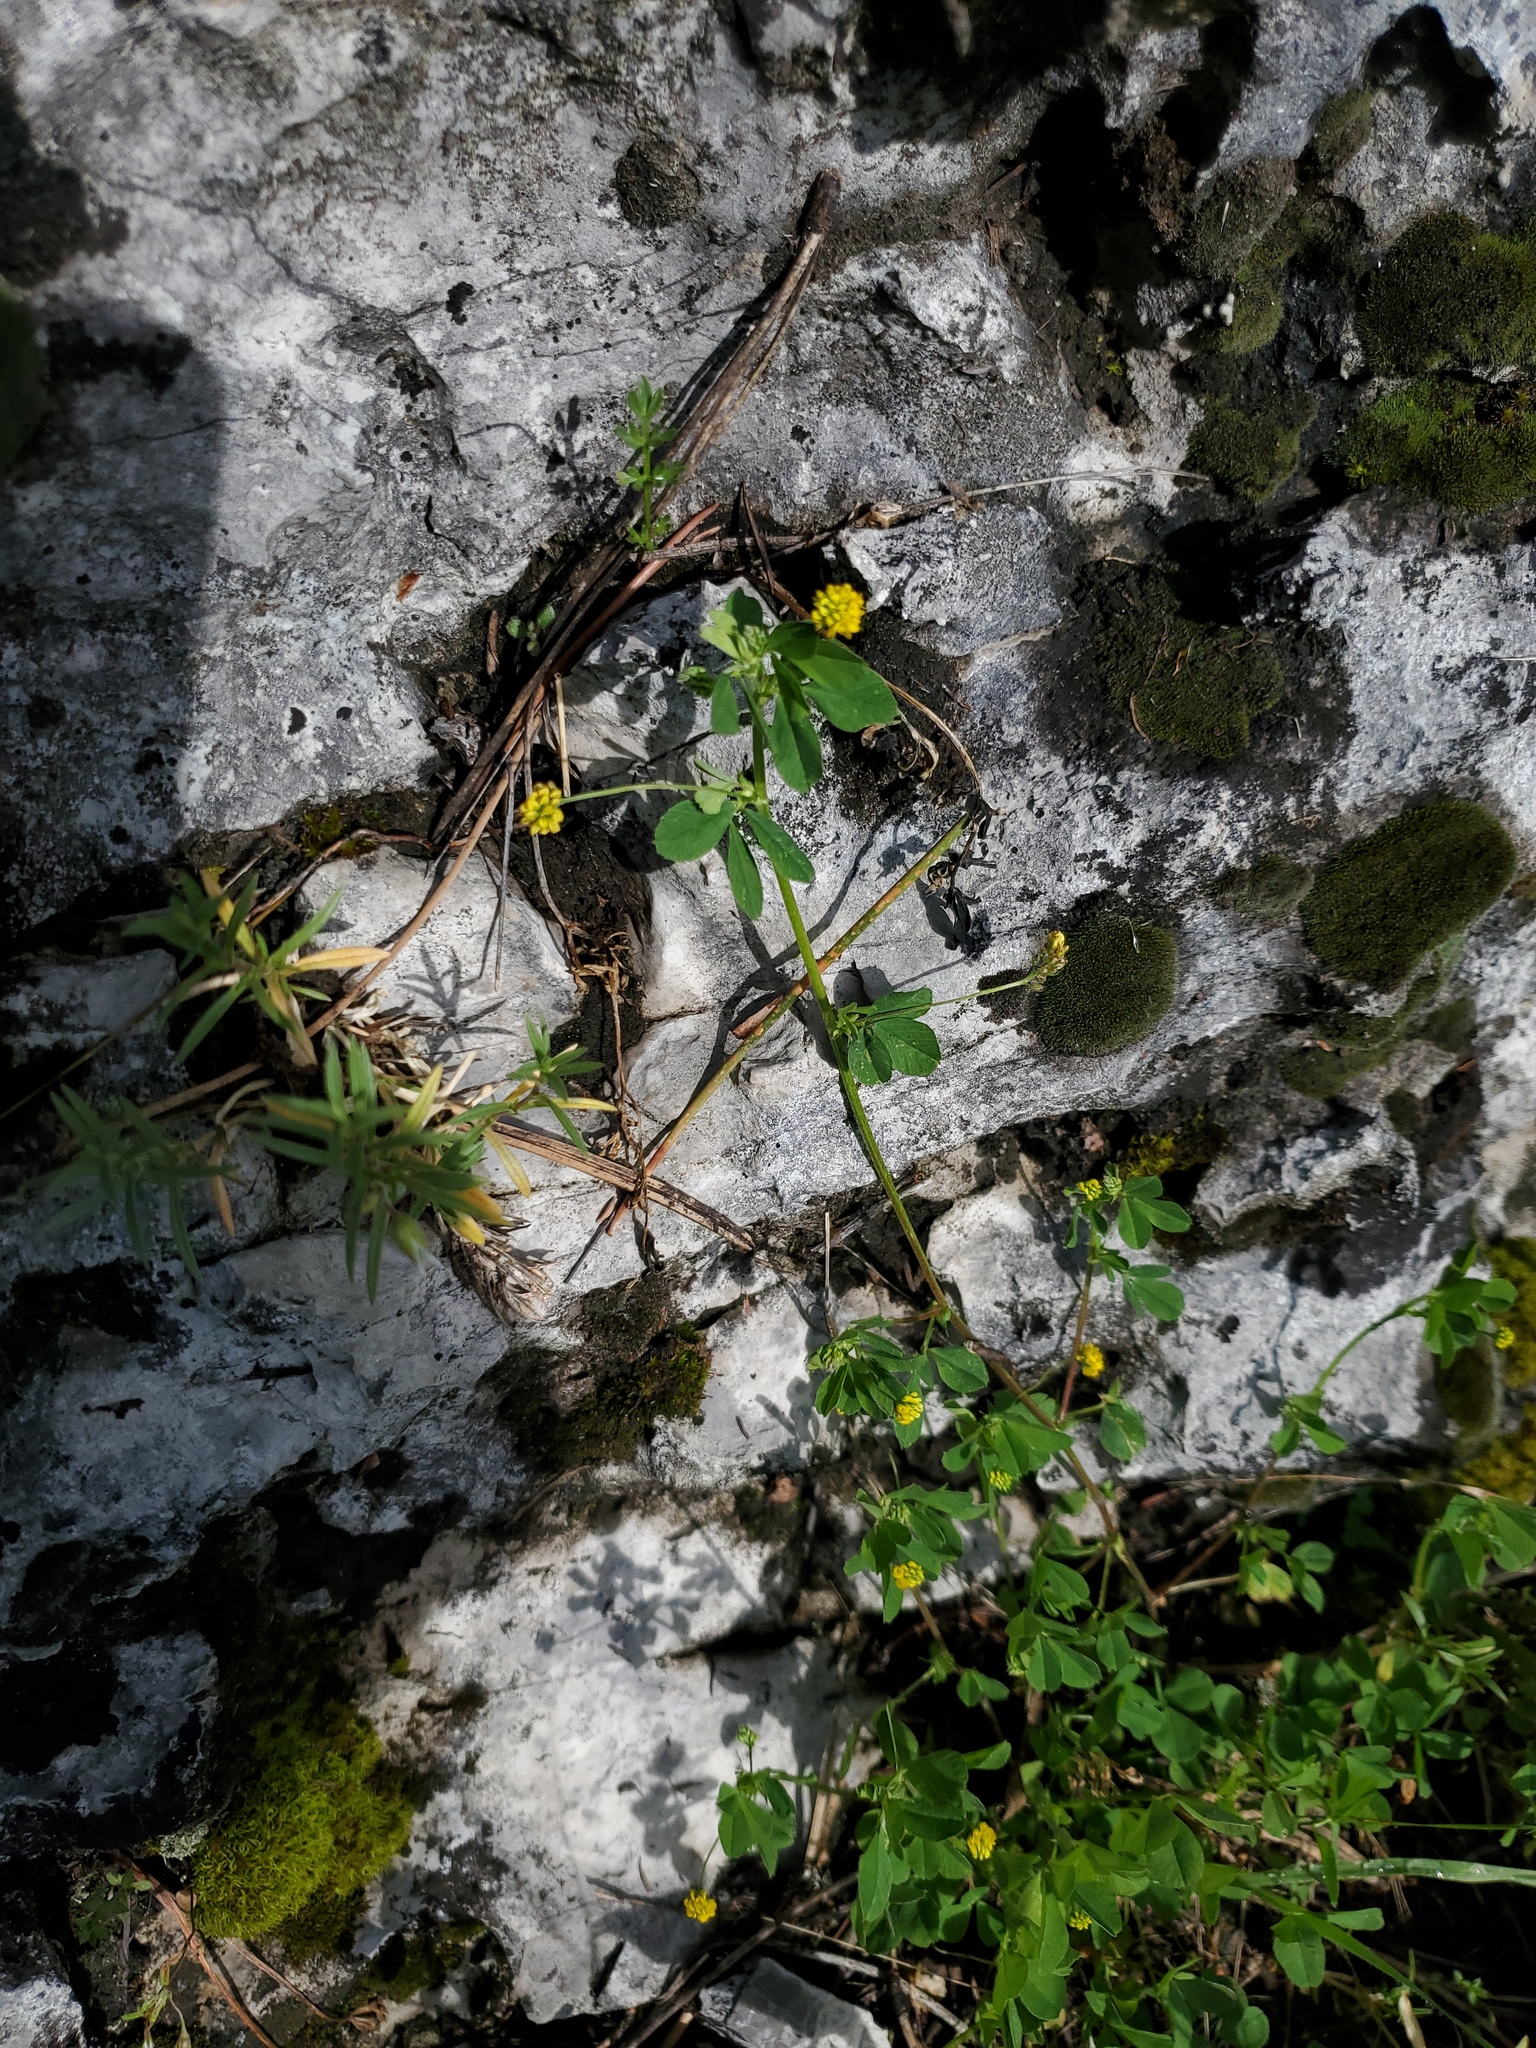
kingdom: Plantae
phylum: Tracheophyta
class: Magnoliopsida
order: Fabales
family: Fabaceae
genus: Medicago
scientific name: Medicago lupulina
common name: Black medick
